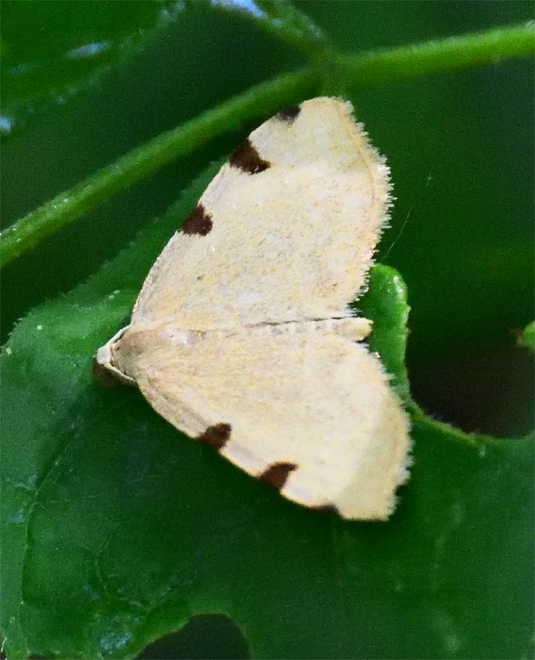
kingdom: Animalia
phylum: Arthropoda
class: Insecta
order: Lepidoptera
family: Geometridae
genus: Heterophleps
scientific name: Heterophleps triguttaria
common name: Three-spotted fillip
